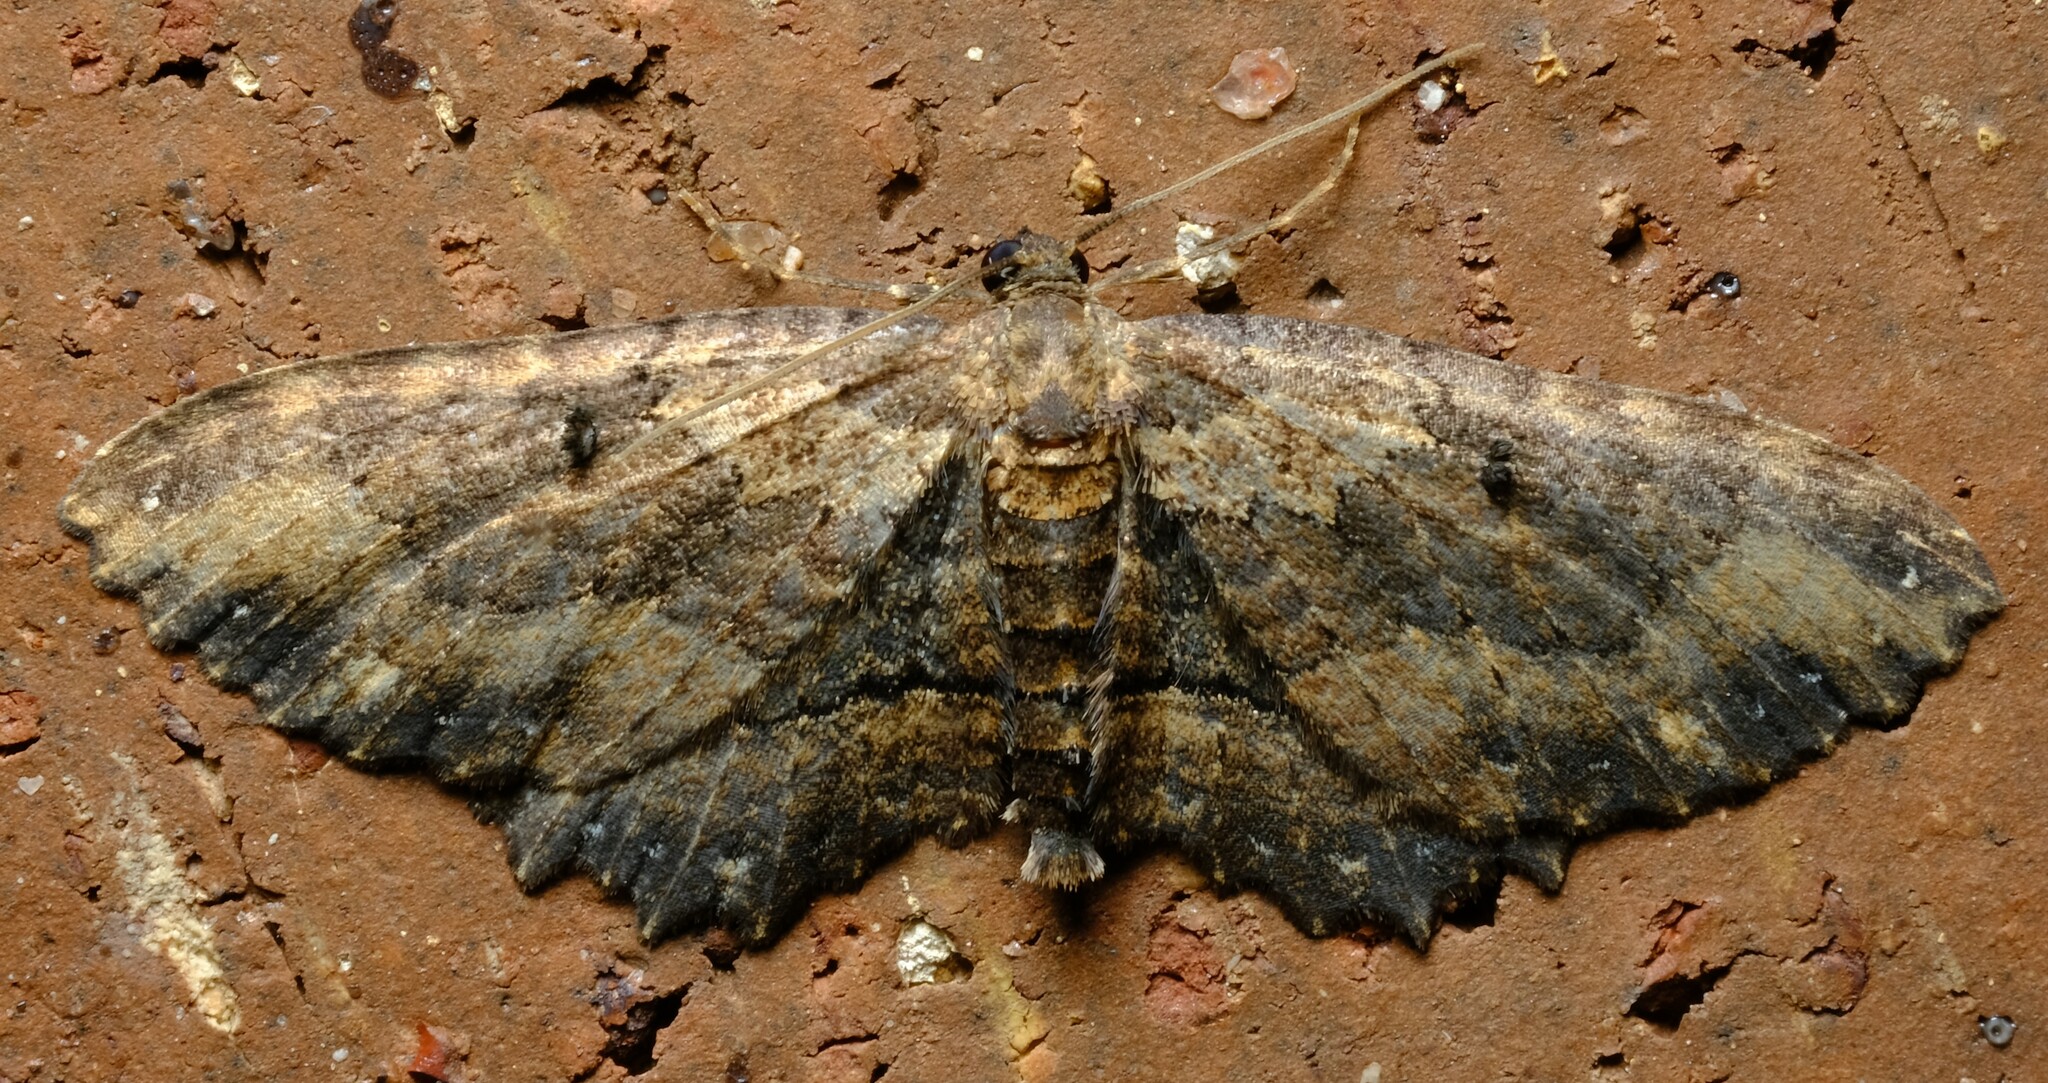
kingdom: Animalia
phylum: Arthropoda
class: Insecta
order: Lepidoptera
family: Geometridae
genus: Eccymatoge
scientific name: Eccymatoge callizona
